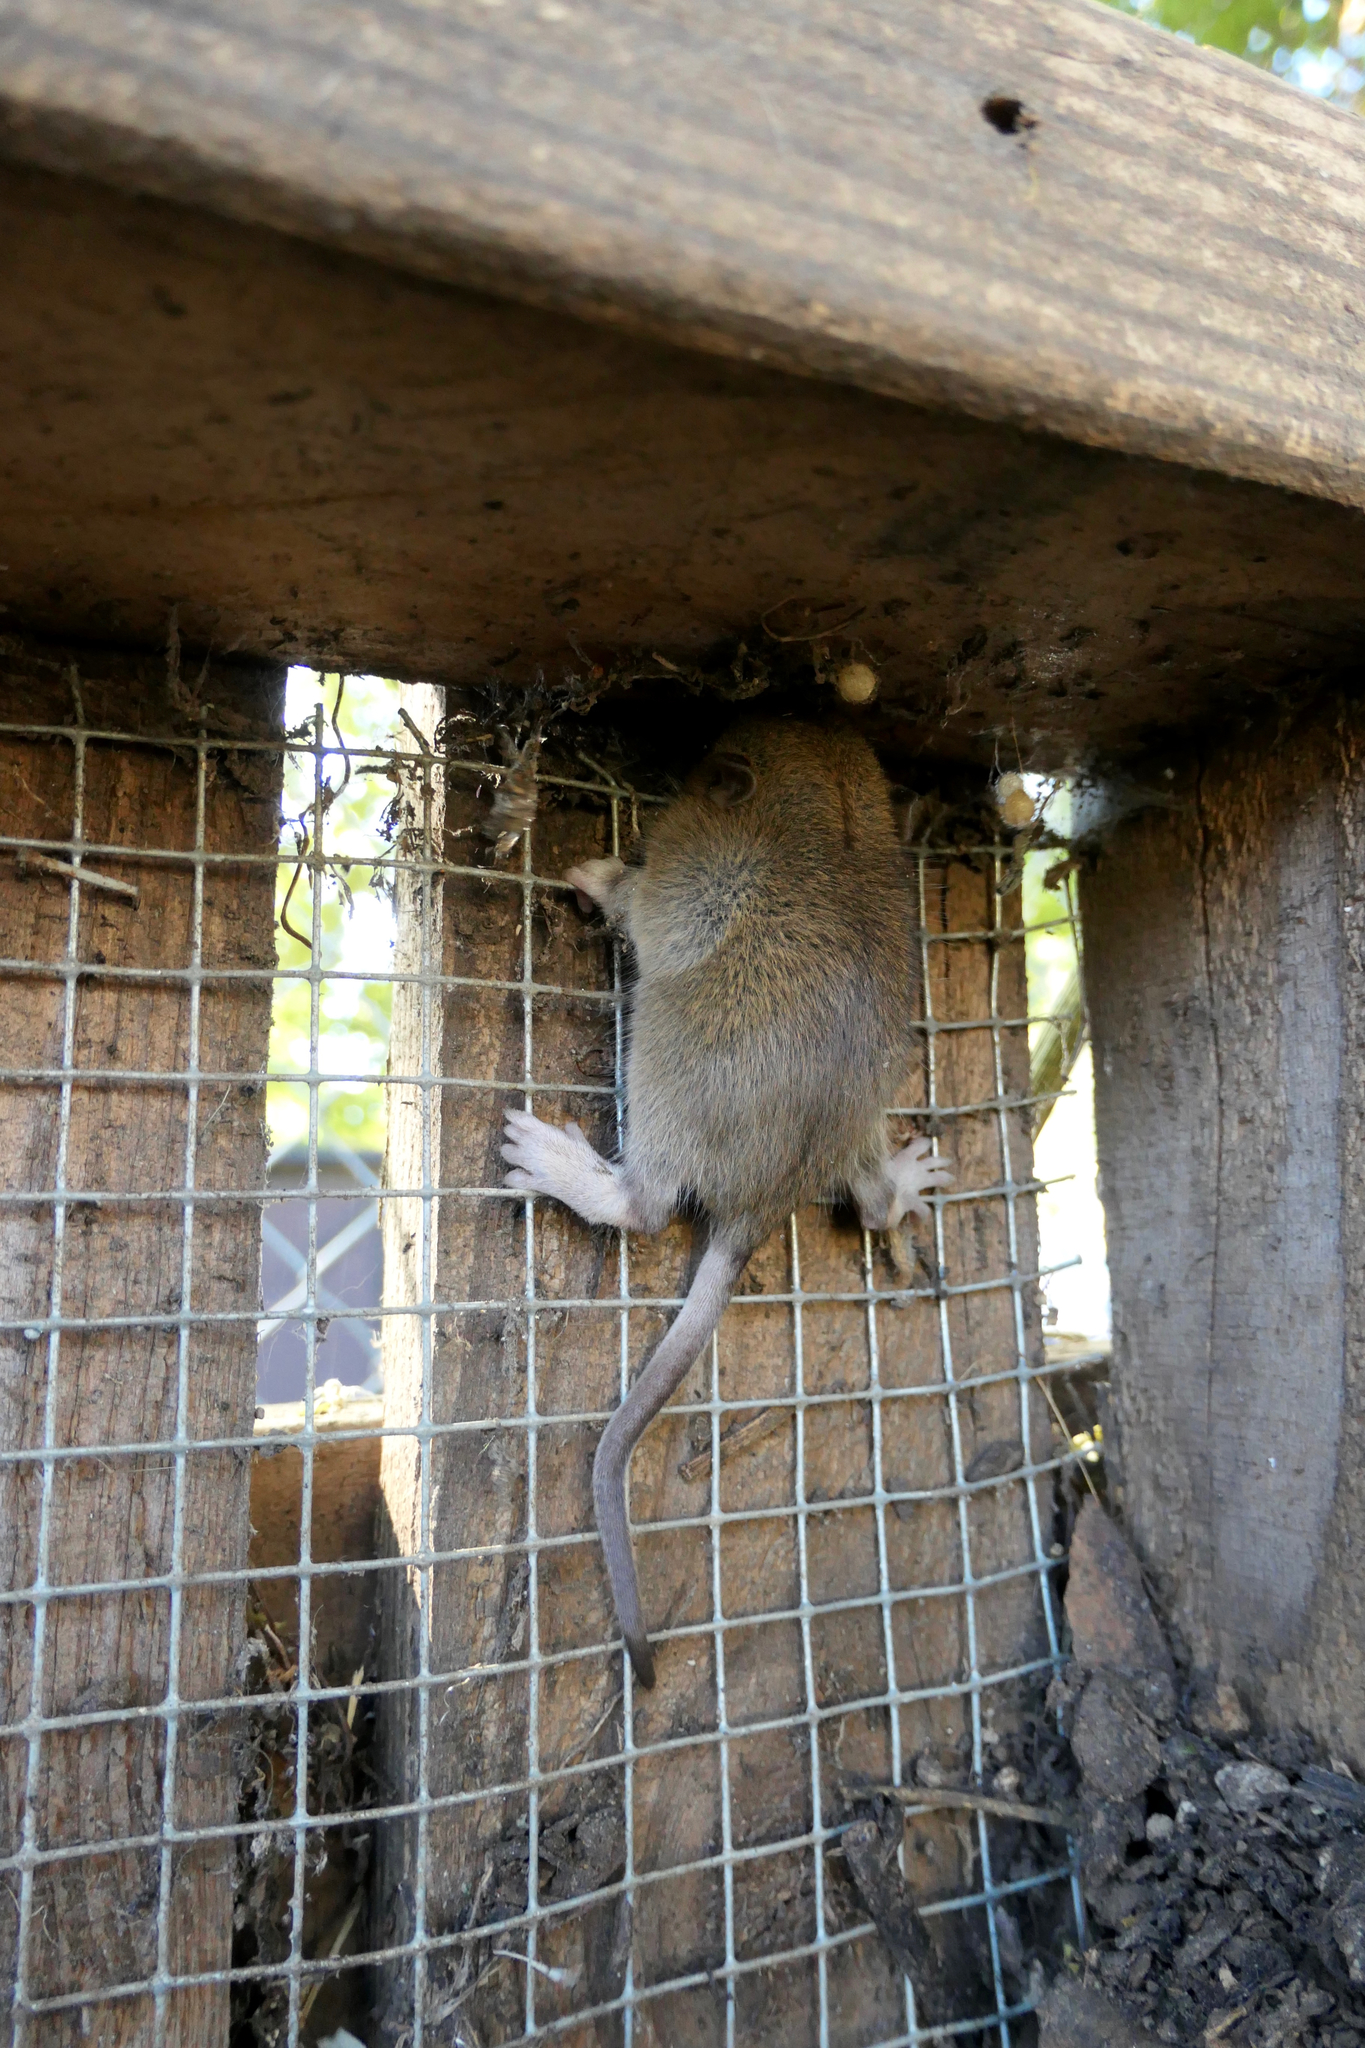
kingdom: Animalia
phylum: Chordata
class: Mammalia
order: Rodentia
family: Muridae
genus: Rattus
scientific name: Rattus norvegicus
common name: Brown rat
